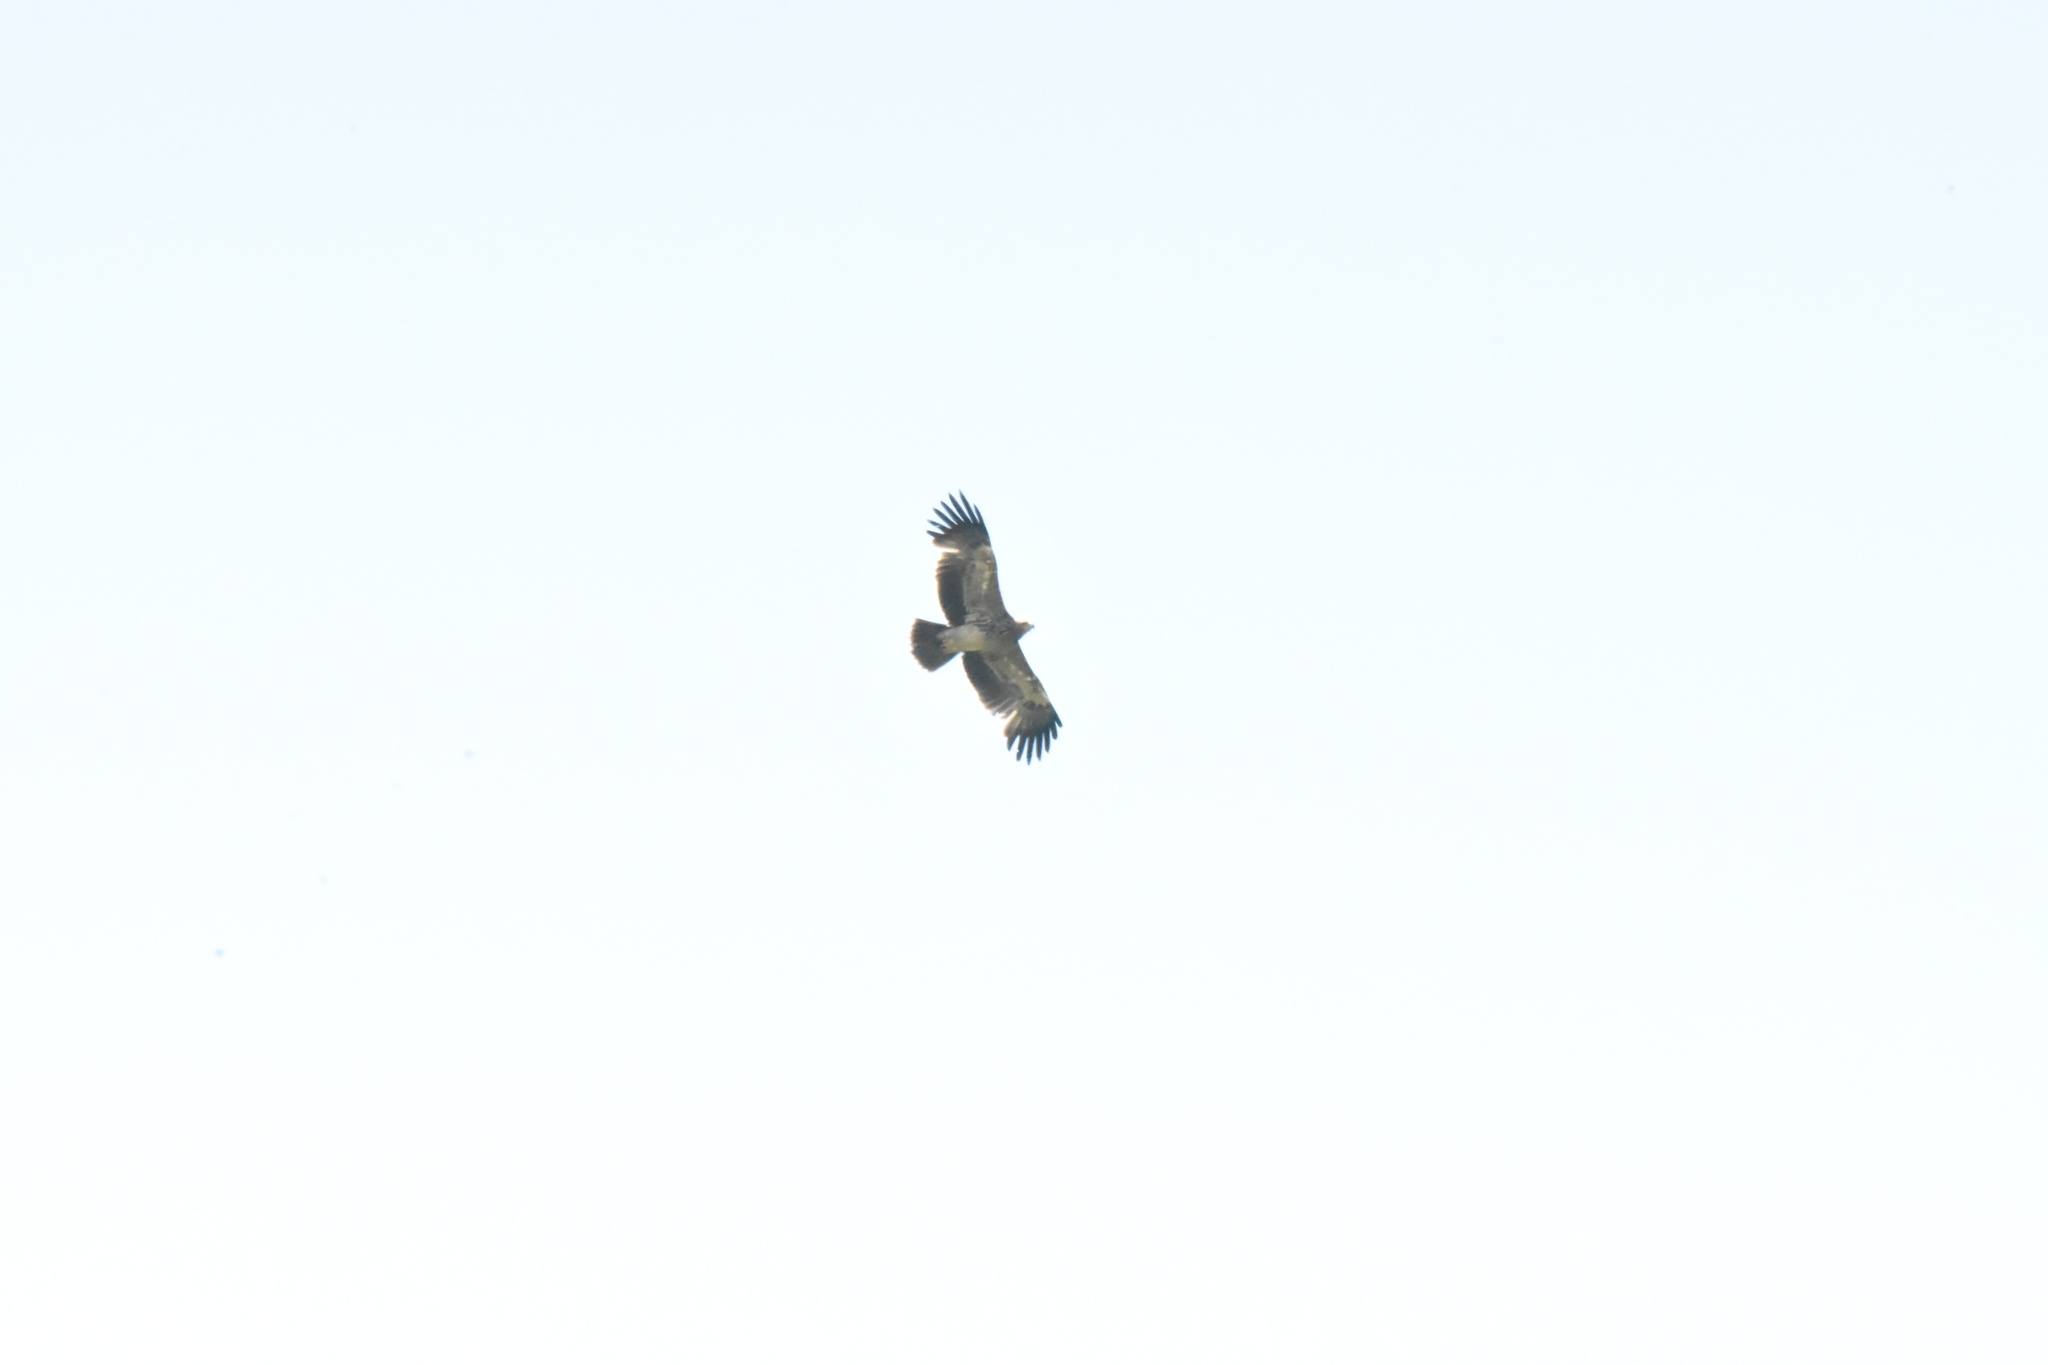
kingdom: Animalia
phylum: Chordata
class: Aves
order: Accipitriformes
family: Accipitridae
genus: Aquila
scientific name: Aquila heliaca
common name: Eastern imperial eagle
